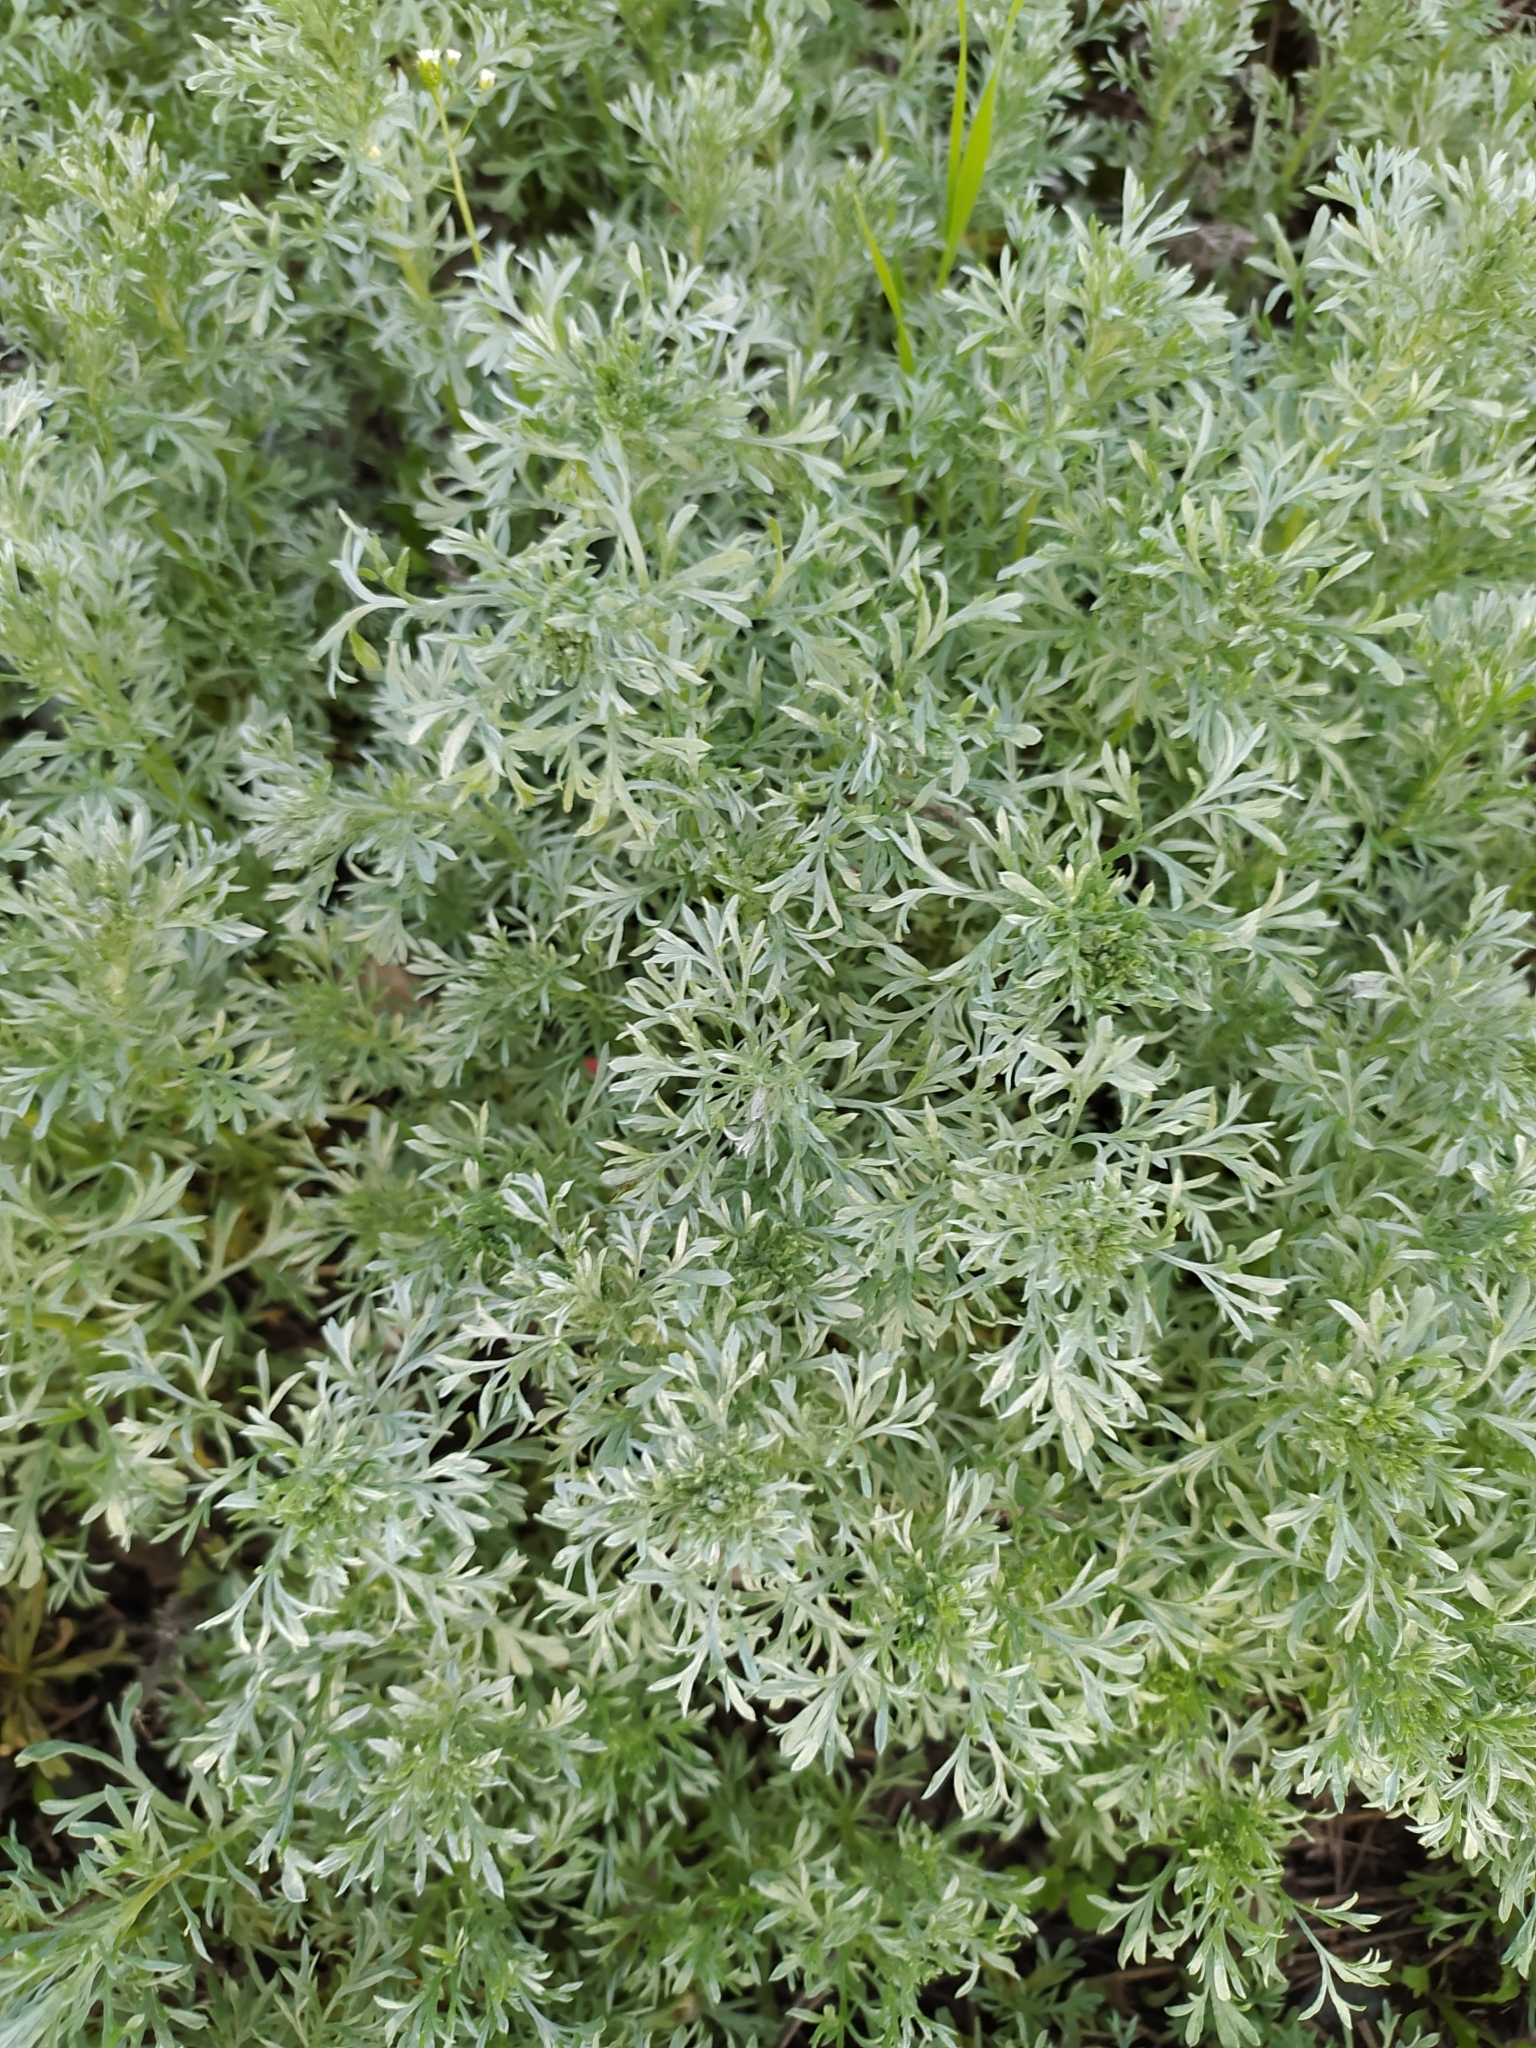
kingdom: Plantae
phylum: Tracheophyta
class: Magnoliopsida
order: Asterales
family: Asteraceae
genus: Artemisia
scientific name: Artemisia austriaca
